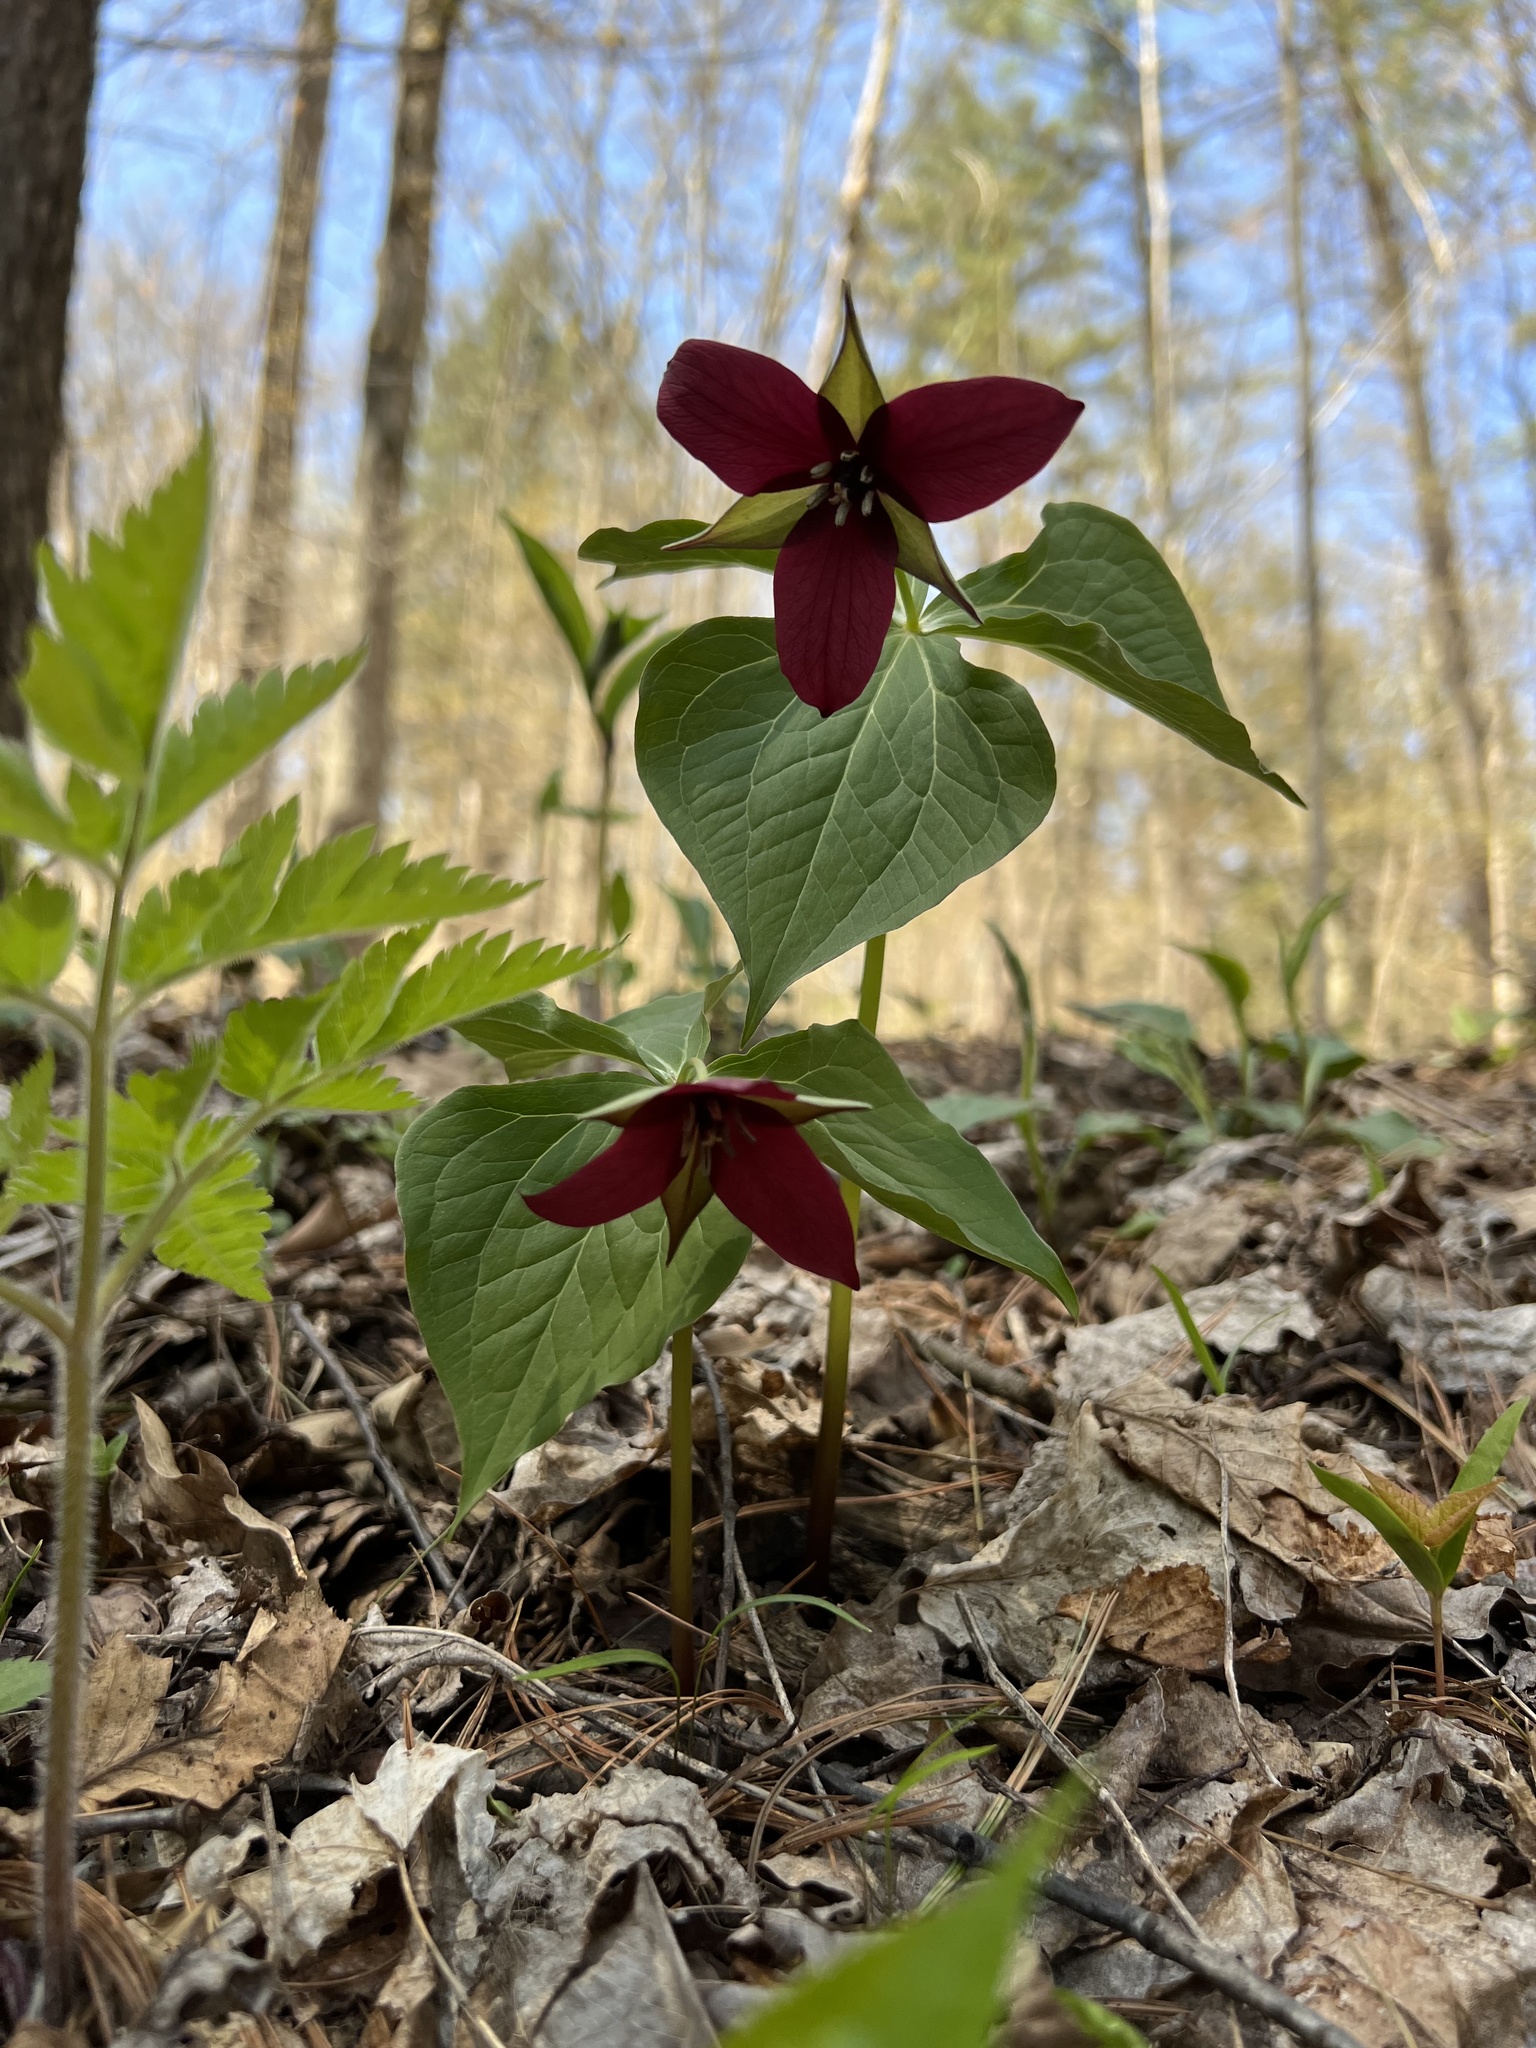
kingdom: Plantae
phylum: Tracheophyta
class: Liliopsida
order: Liliales
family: Melanthiaceae
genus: Trillium
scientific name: Trillium erectum
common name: Purple trillium
